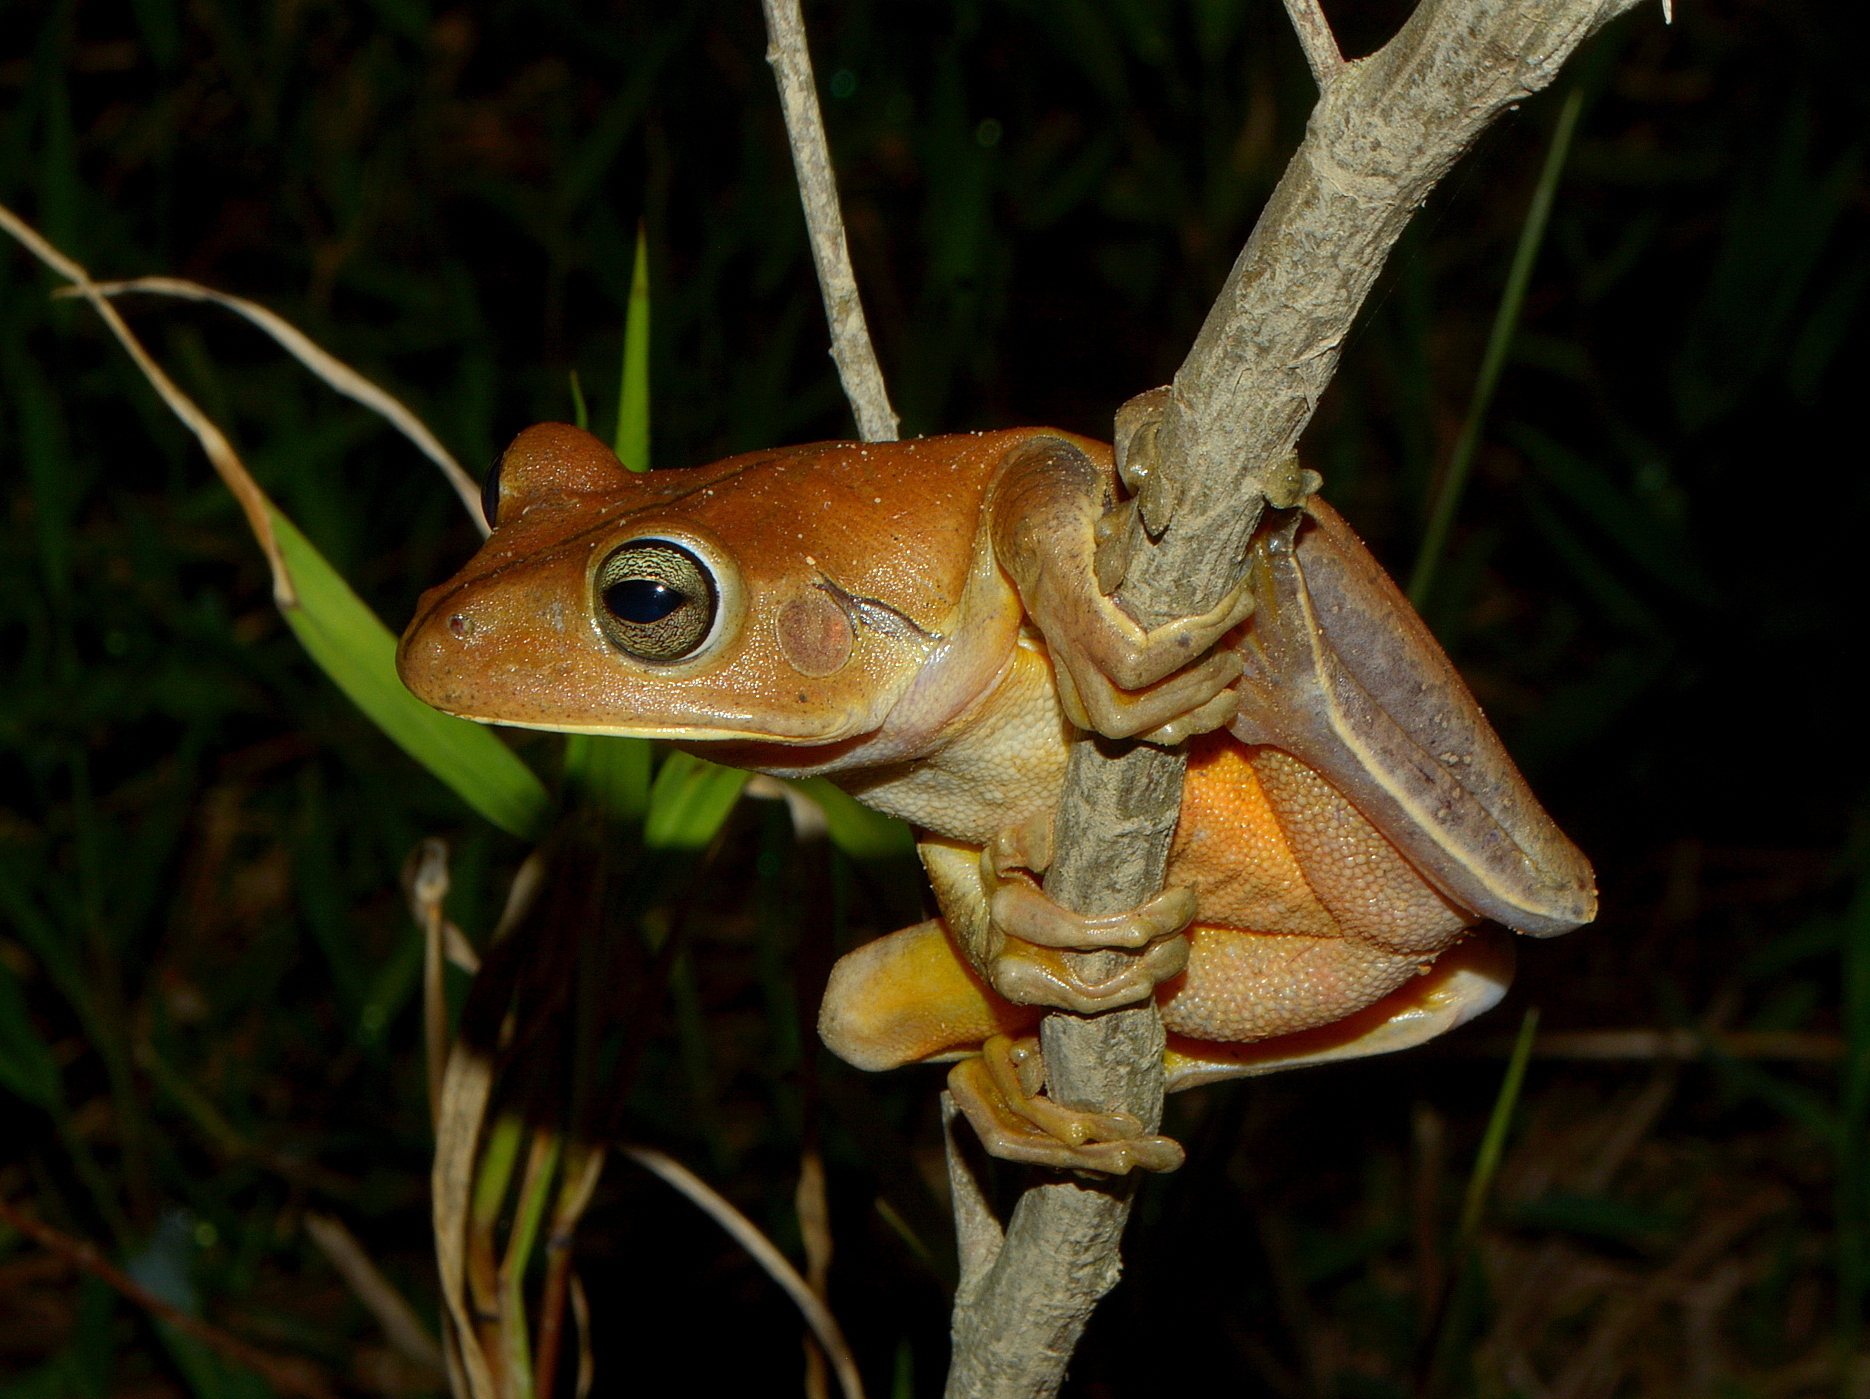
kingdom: Animalia
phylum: Chordata
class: Amphibia
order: Anura
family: Hylidae
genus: Boana
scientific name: Boana faber
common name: Blacksmith tree frog
